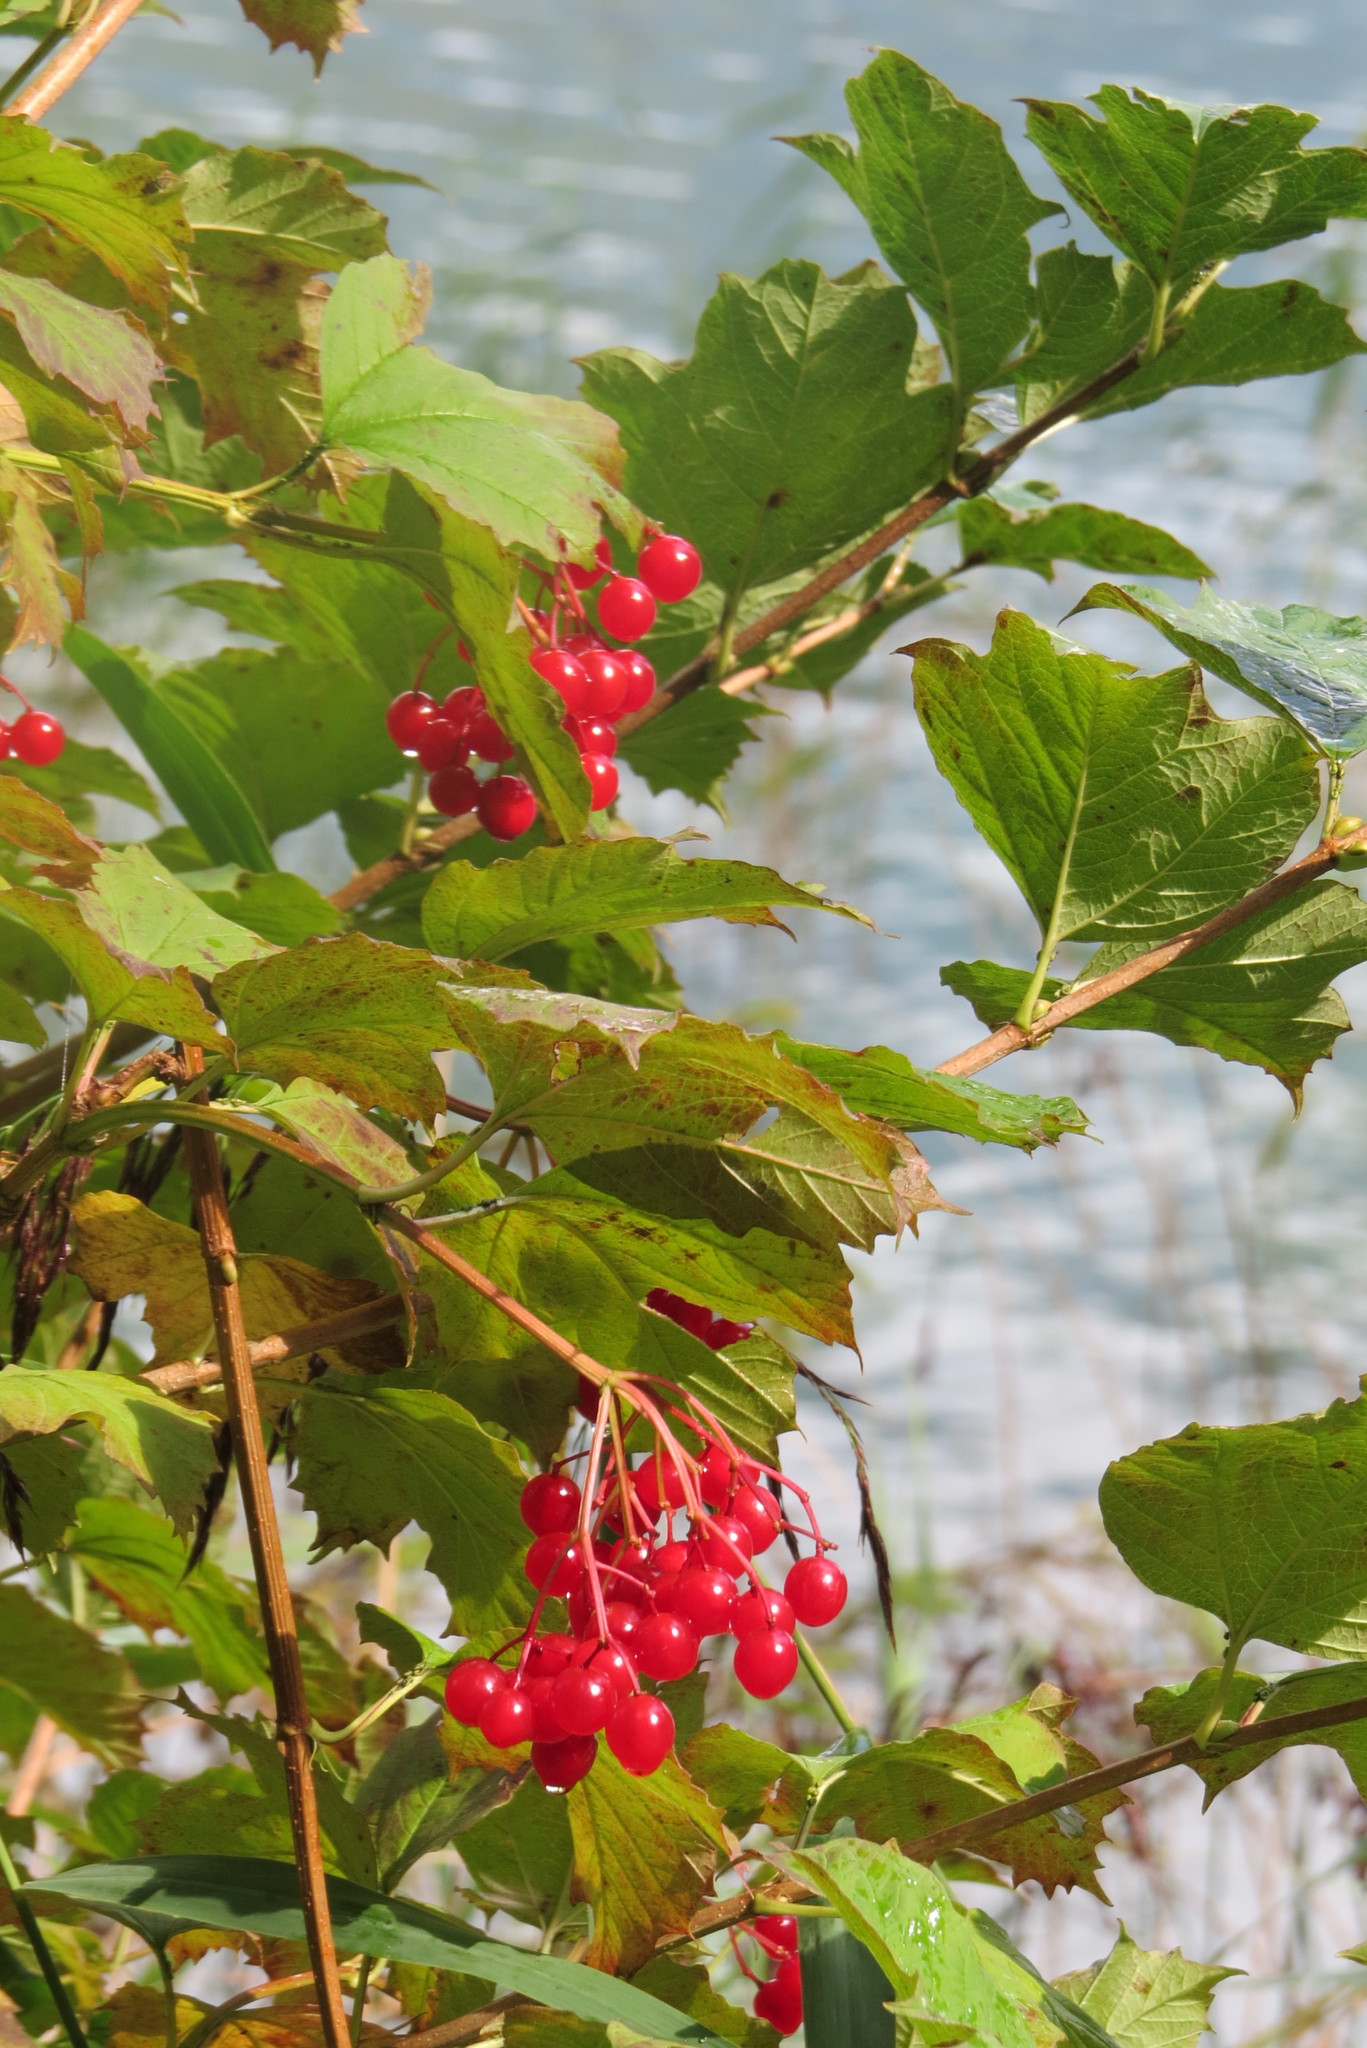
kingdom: Plantae
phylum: Tracheophyta
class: Magnoliopsida
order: Dipsacales
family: Viburnaceae
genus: Viburnum
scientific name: Viburnum opulus
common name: Guelder-rose
